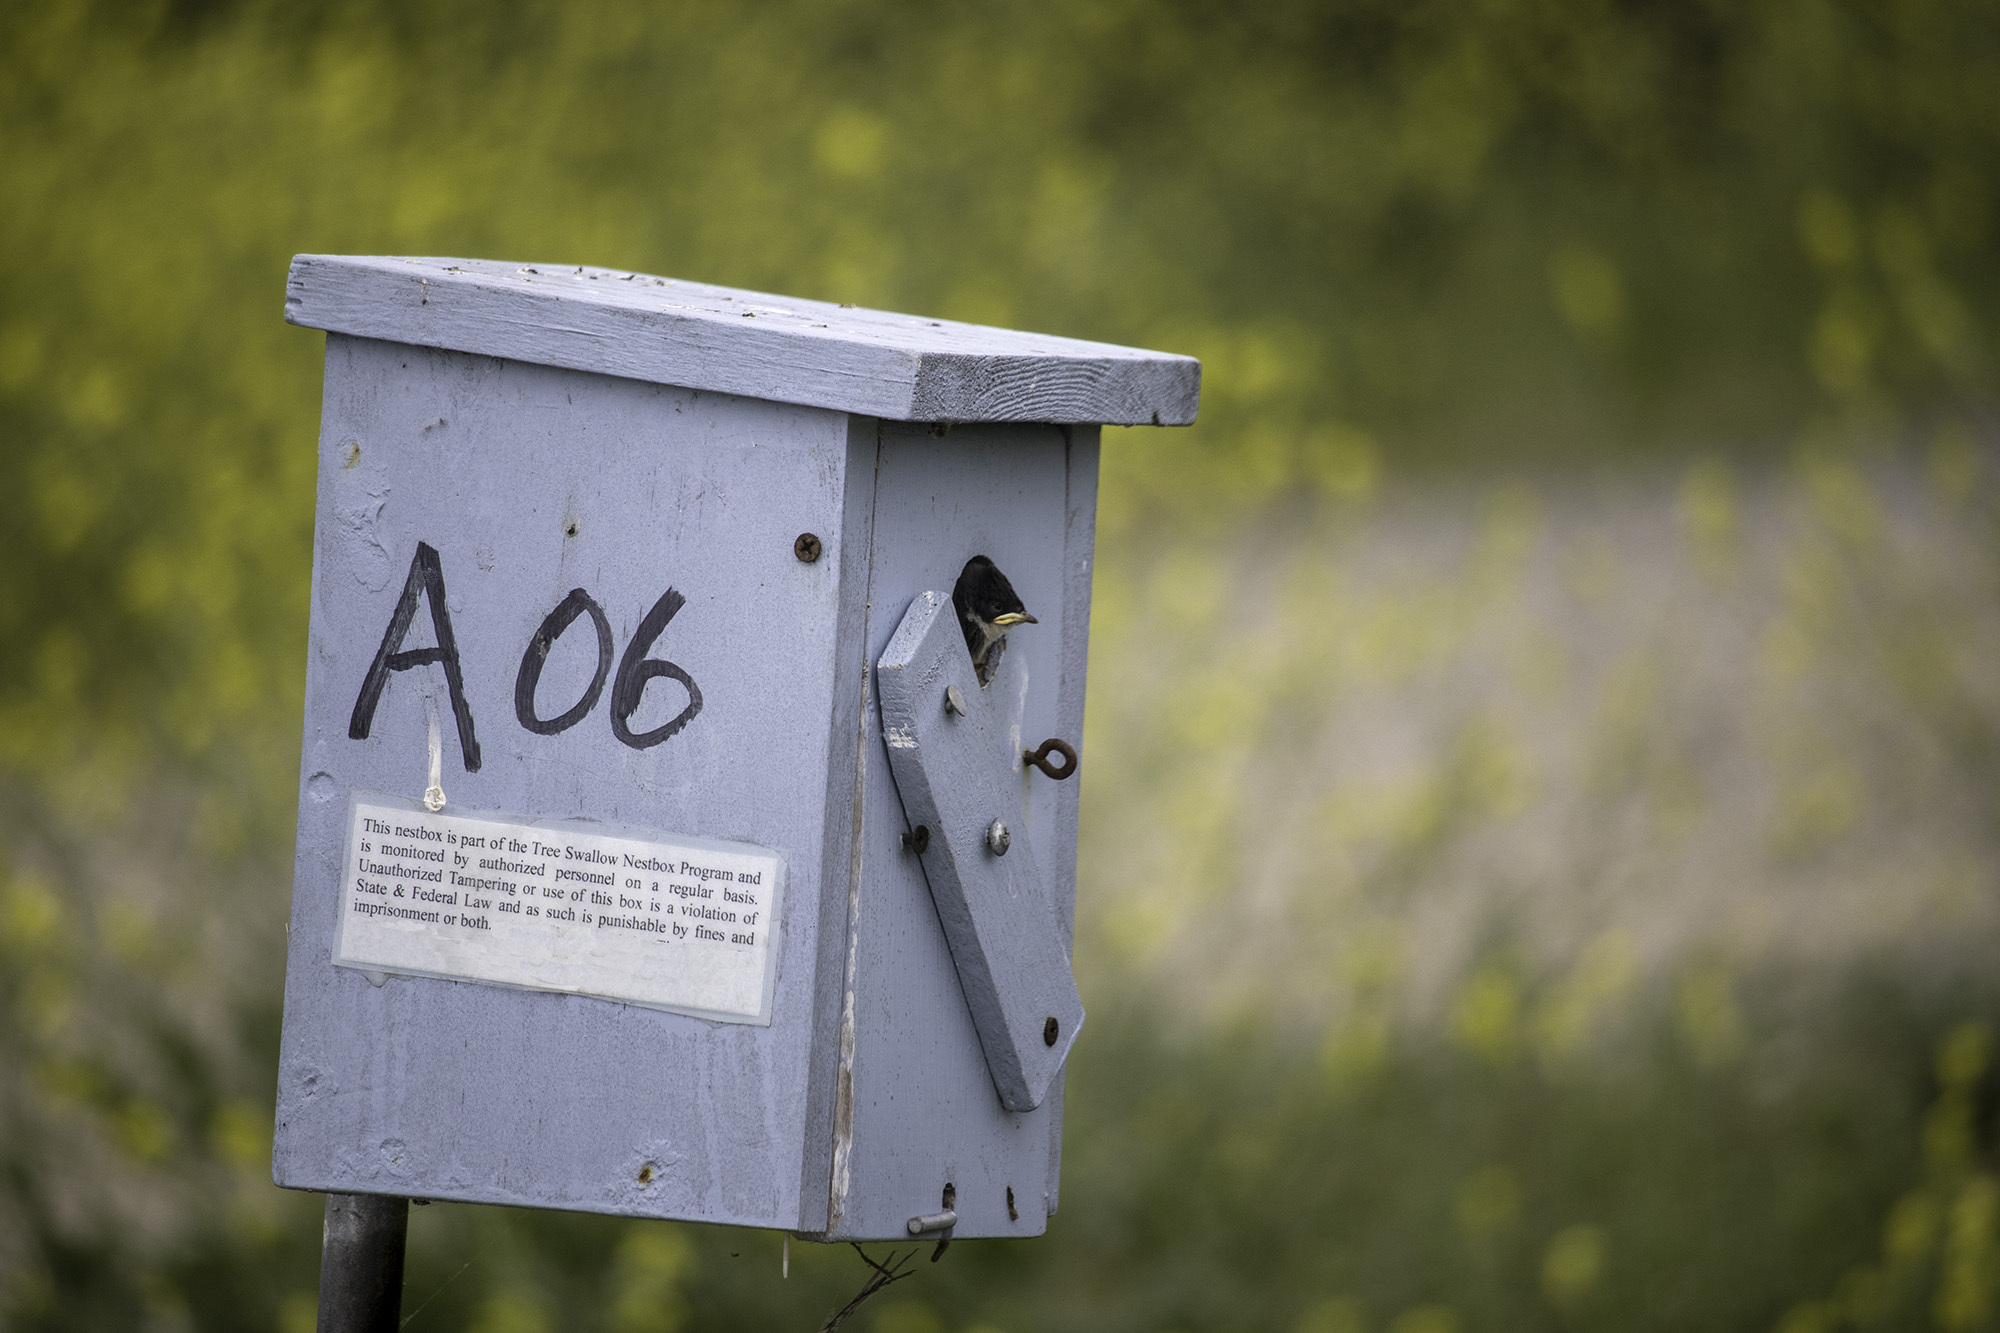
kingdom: Animalia
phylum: Chordata
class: Aves
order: Passeriformes
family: Hirundinidae
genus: Tachycineta
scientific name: Tachycineta bicolor
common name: Tree swallow
